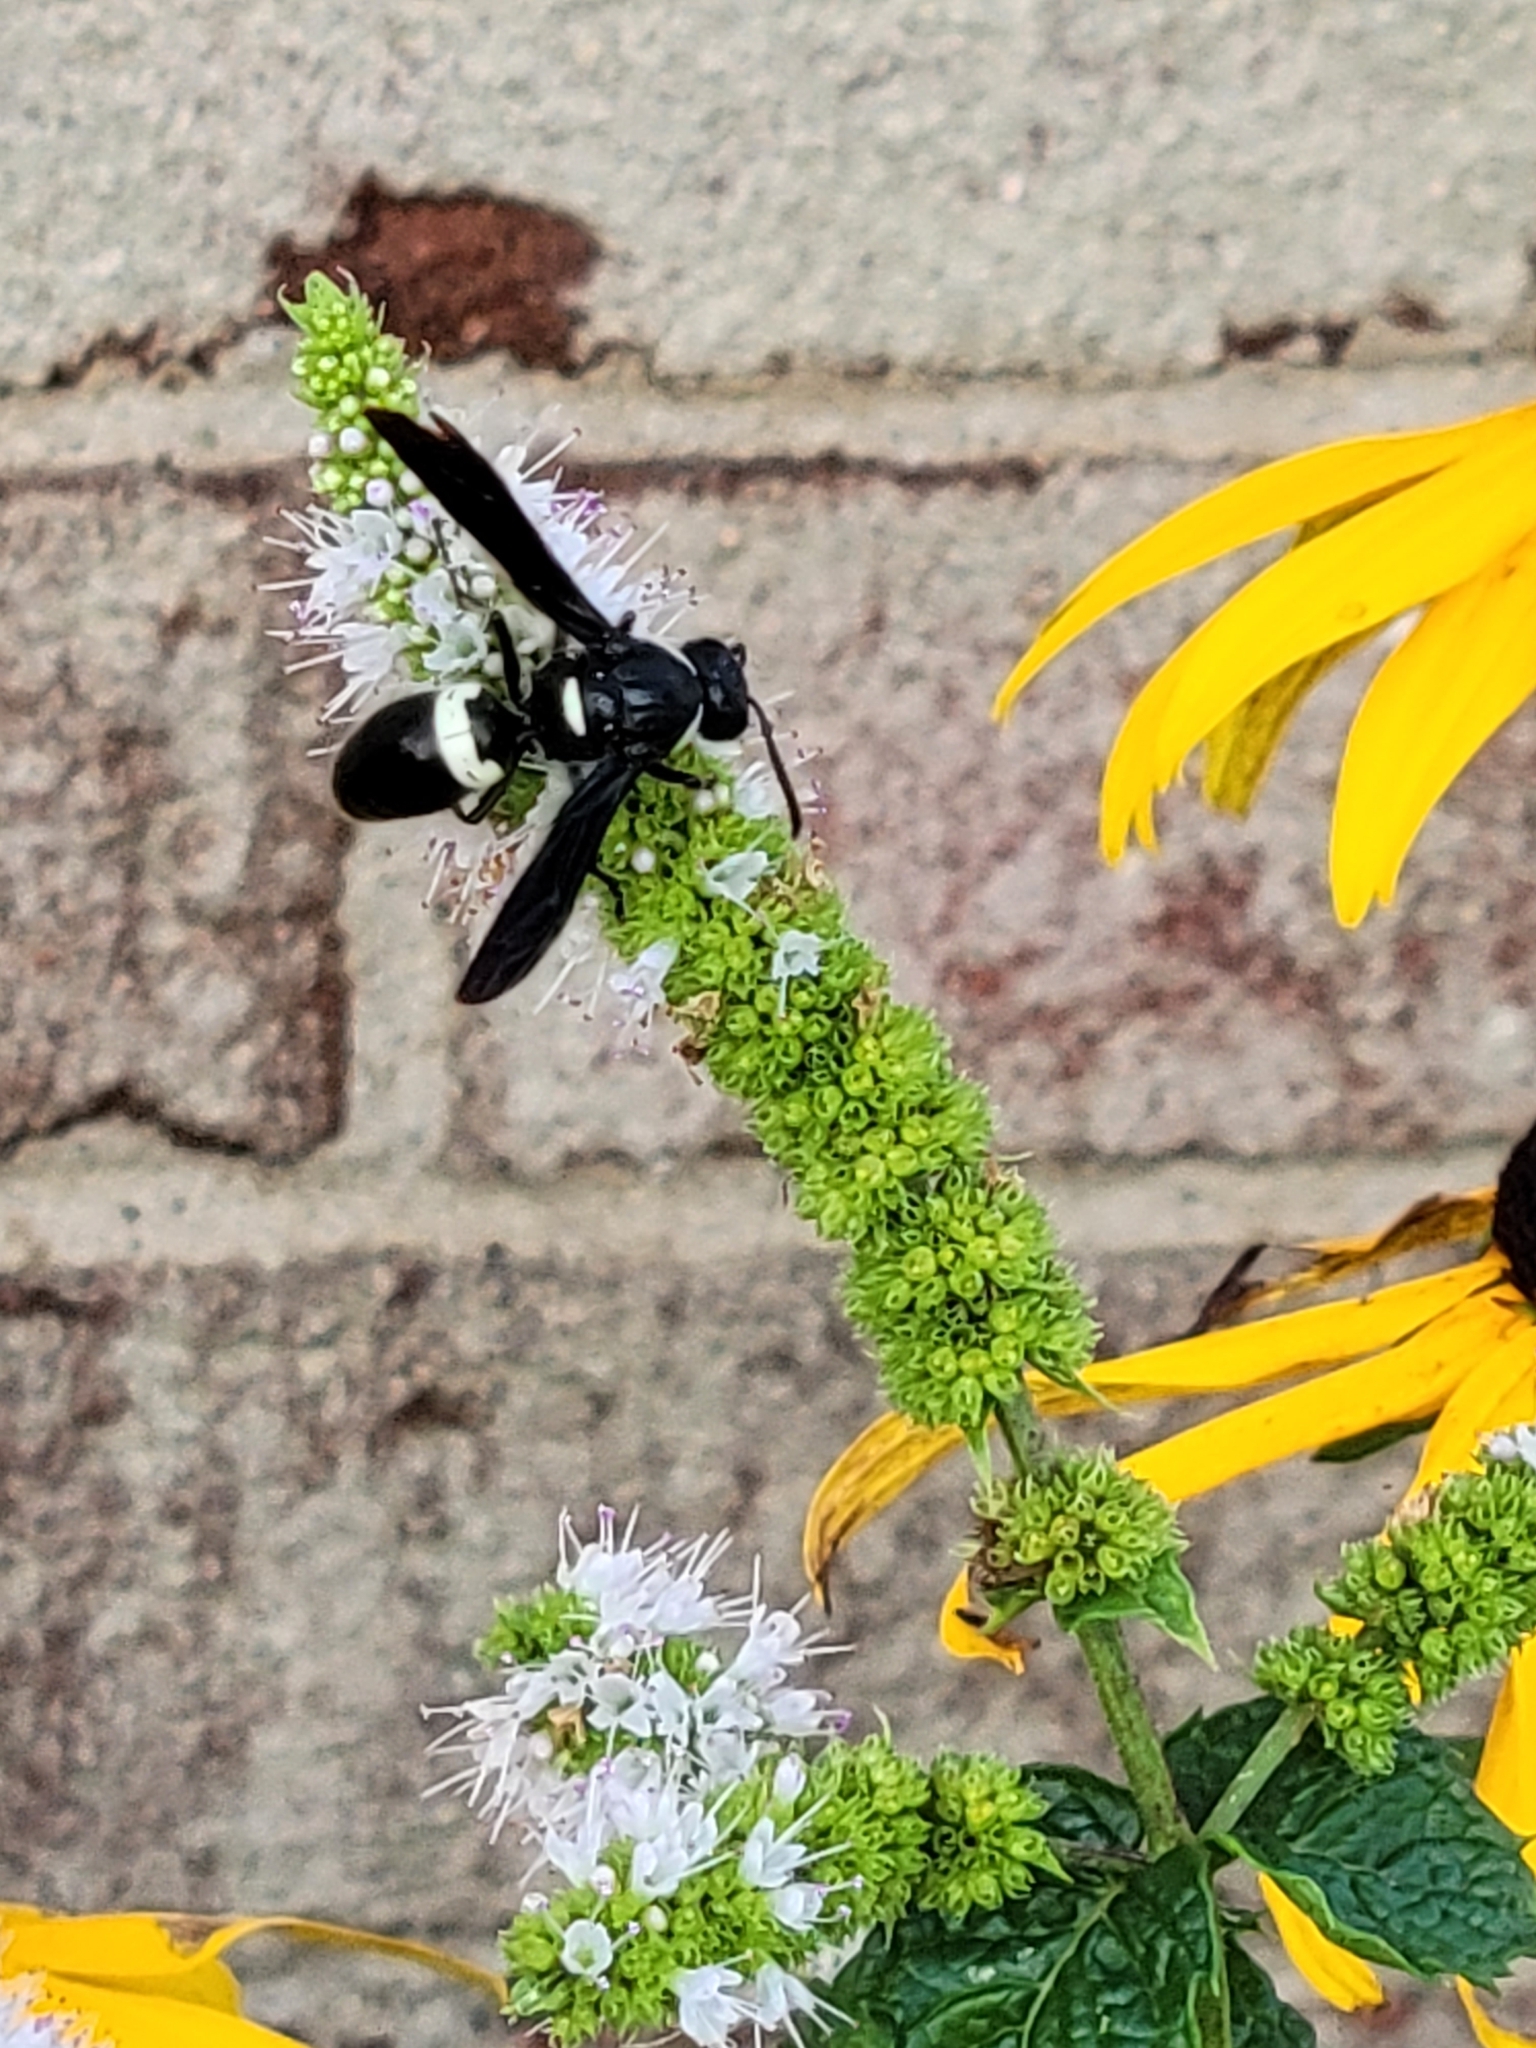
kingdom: Animalia
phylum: Arthropoda
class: Insecta
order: Hymenoptera
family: Eumenidae
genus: Monobia
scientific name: Monobia quadridens
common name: Four-toothed mason wasp
